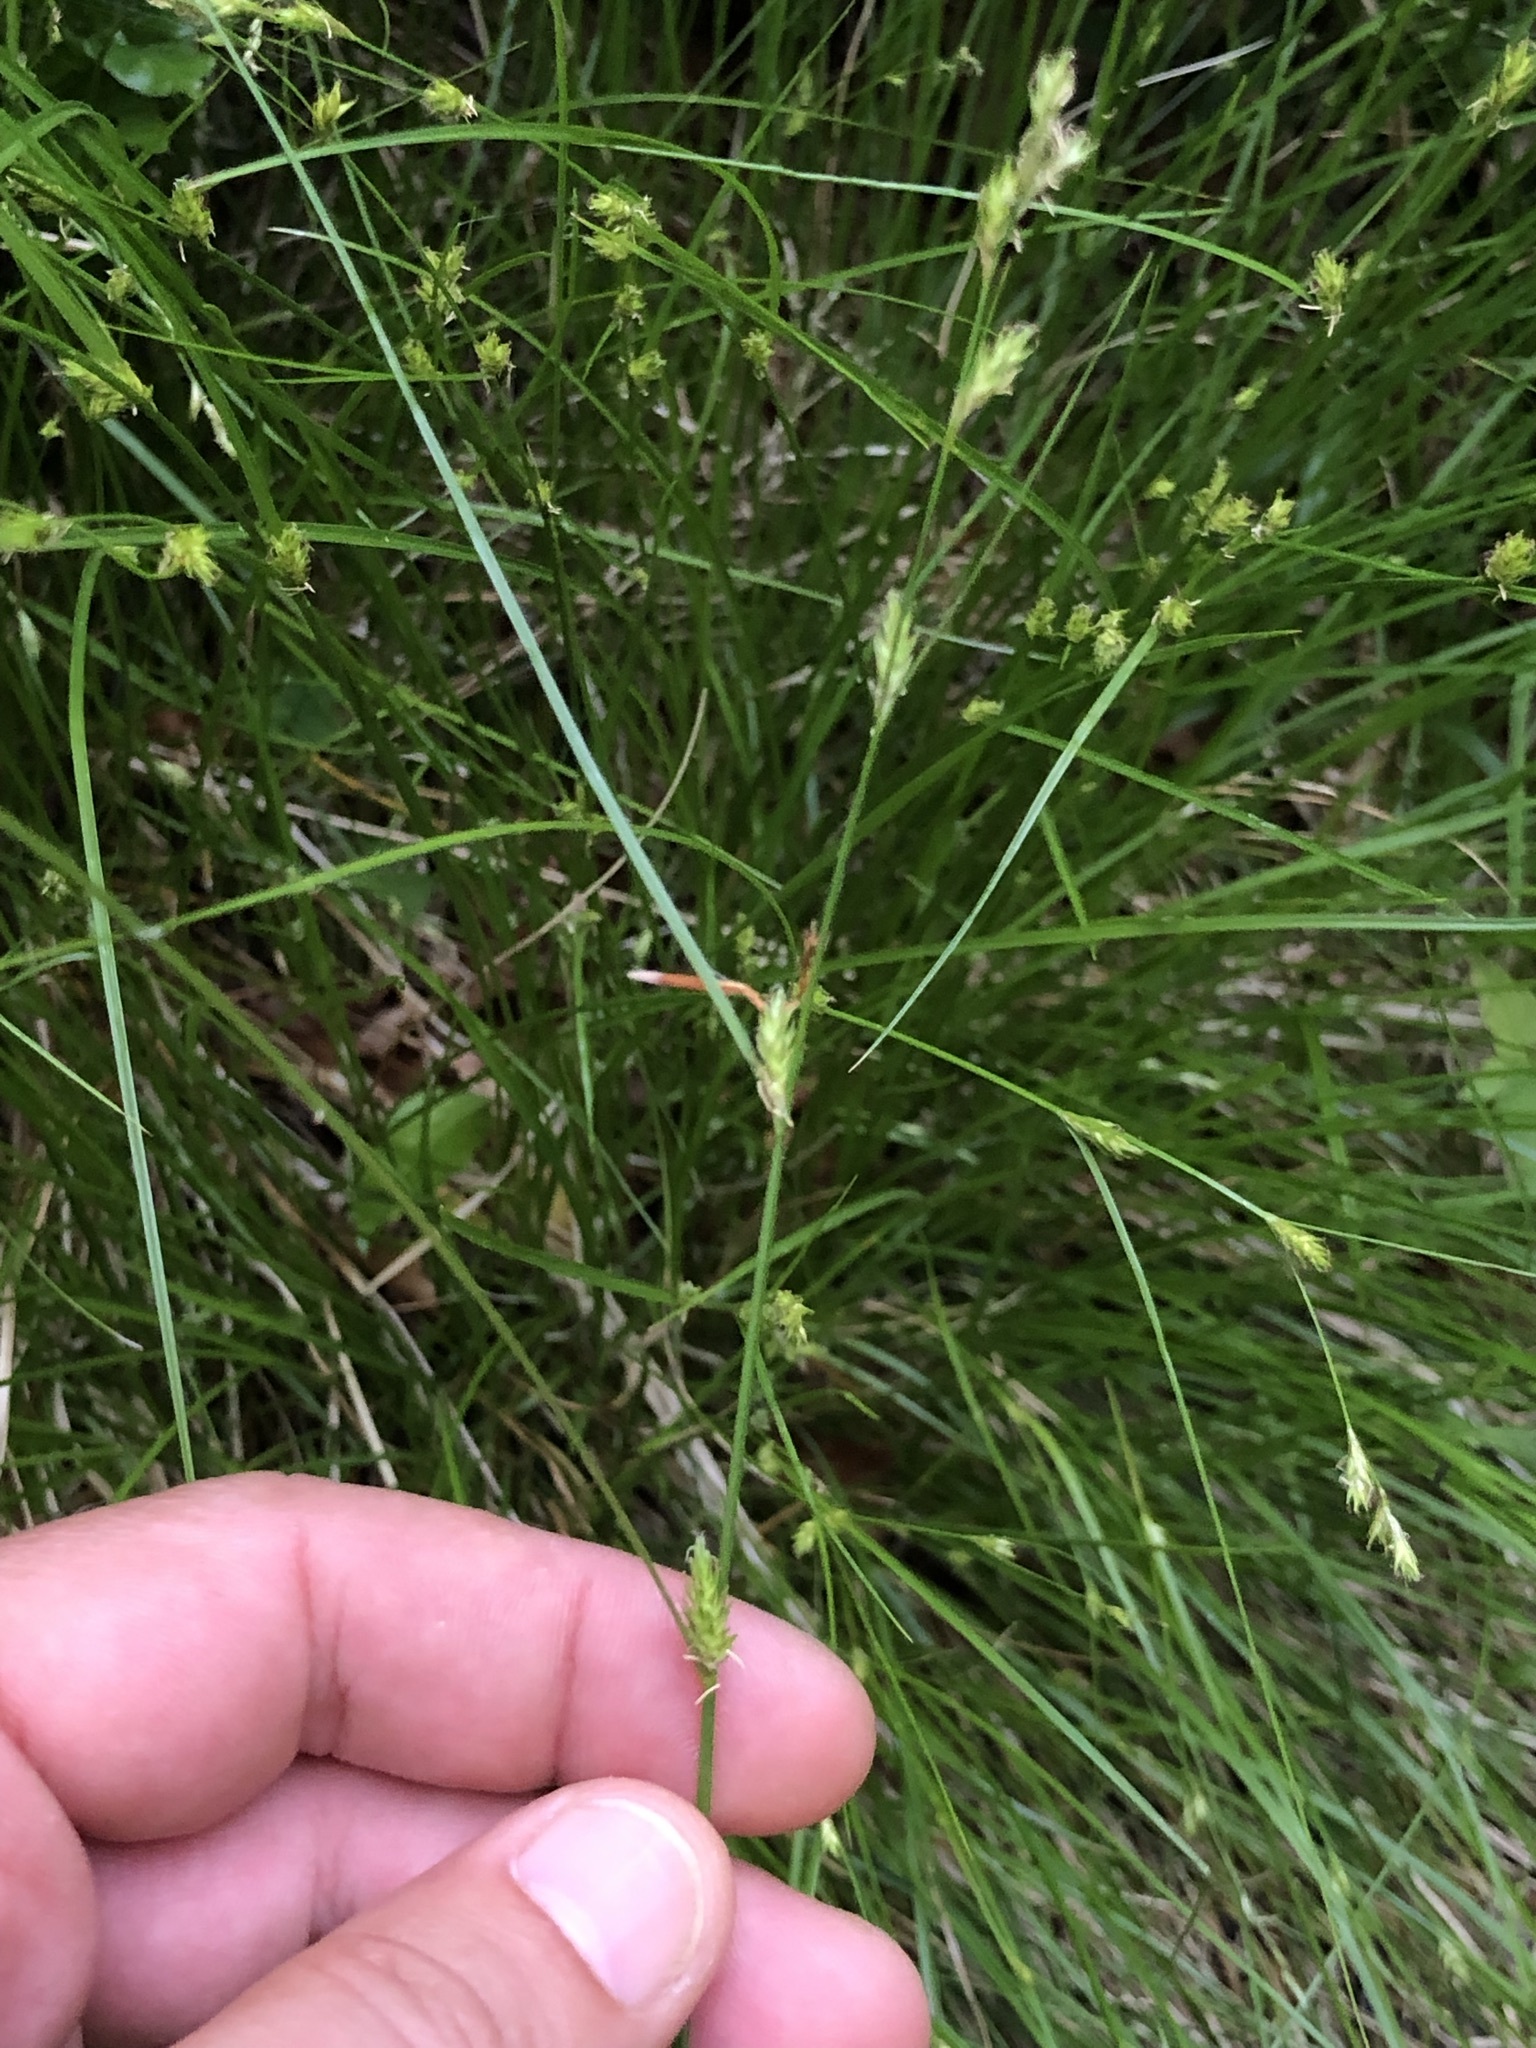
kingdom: Plantae
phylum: Tracheophyta
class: Liliopsida
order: Poales
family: Cyperaceae
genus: Carex
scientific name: Carex remota
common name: Remote sedge
